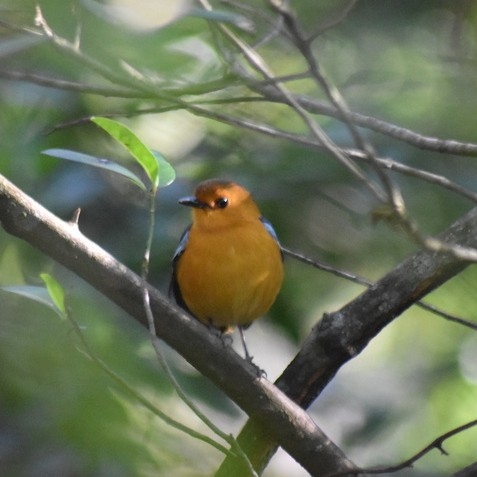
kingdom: Animalia
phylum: Chordata
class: Aves
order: Passeriformes
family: Muscicapidae
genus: Cossypha
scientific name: Cossypha natalensis
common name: Red-capped robin-chat
